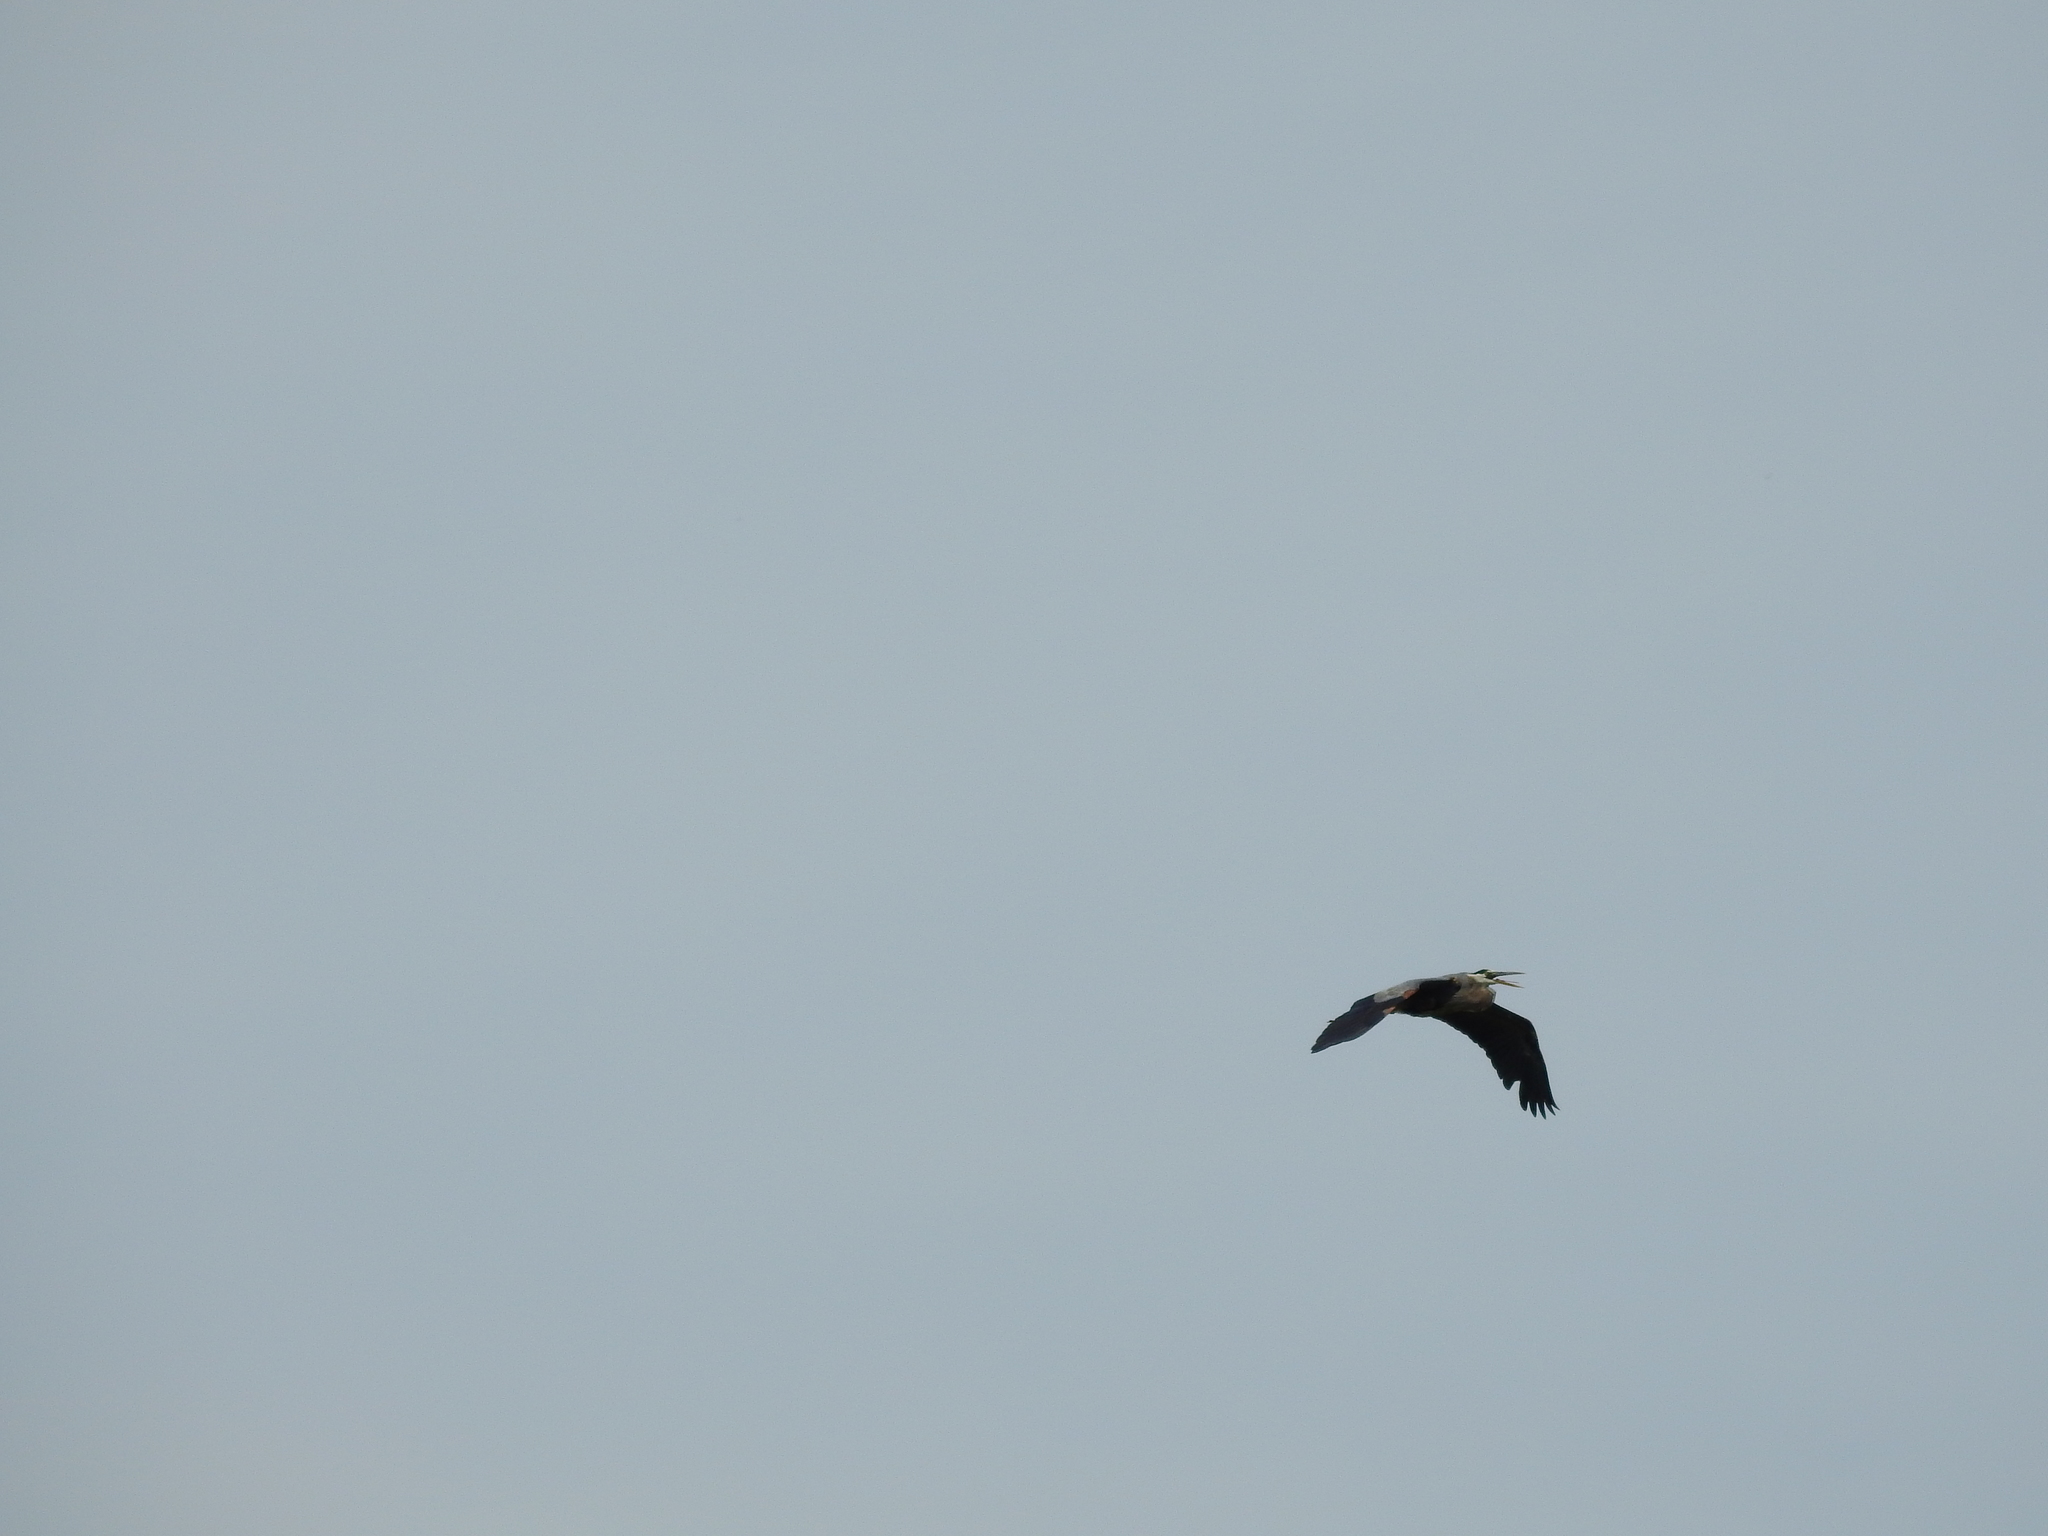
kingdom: Animalia
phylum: Chordata
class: Aves
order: Pelecaniformes
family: Ardeidae
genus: Ardea
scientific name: Ardea herodias
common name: Great blue heron
